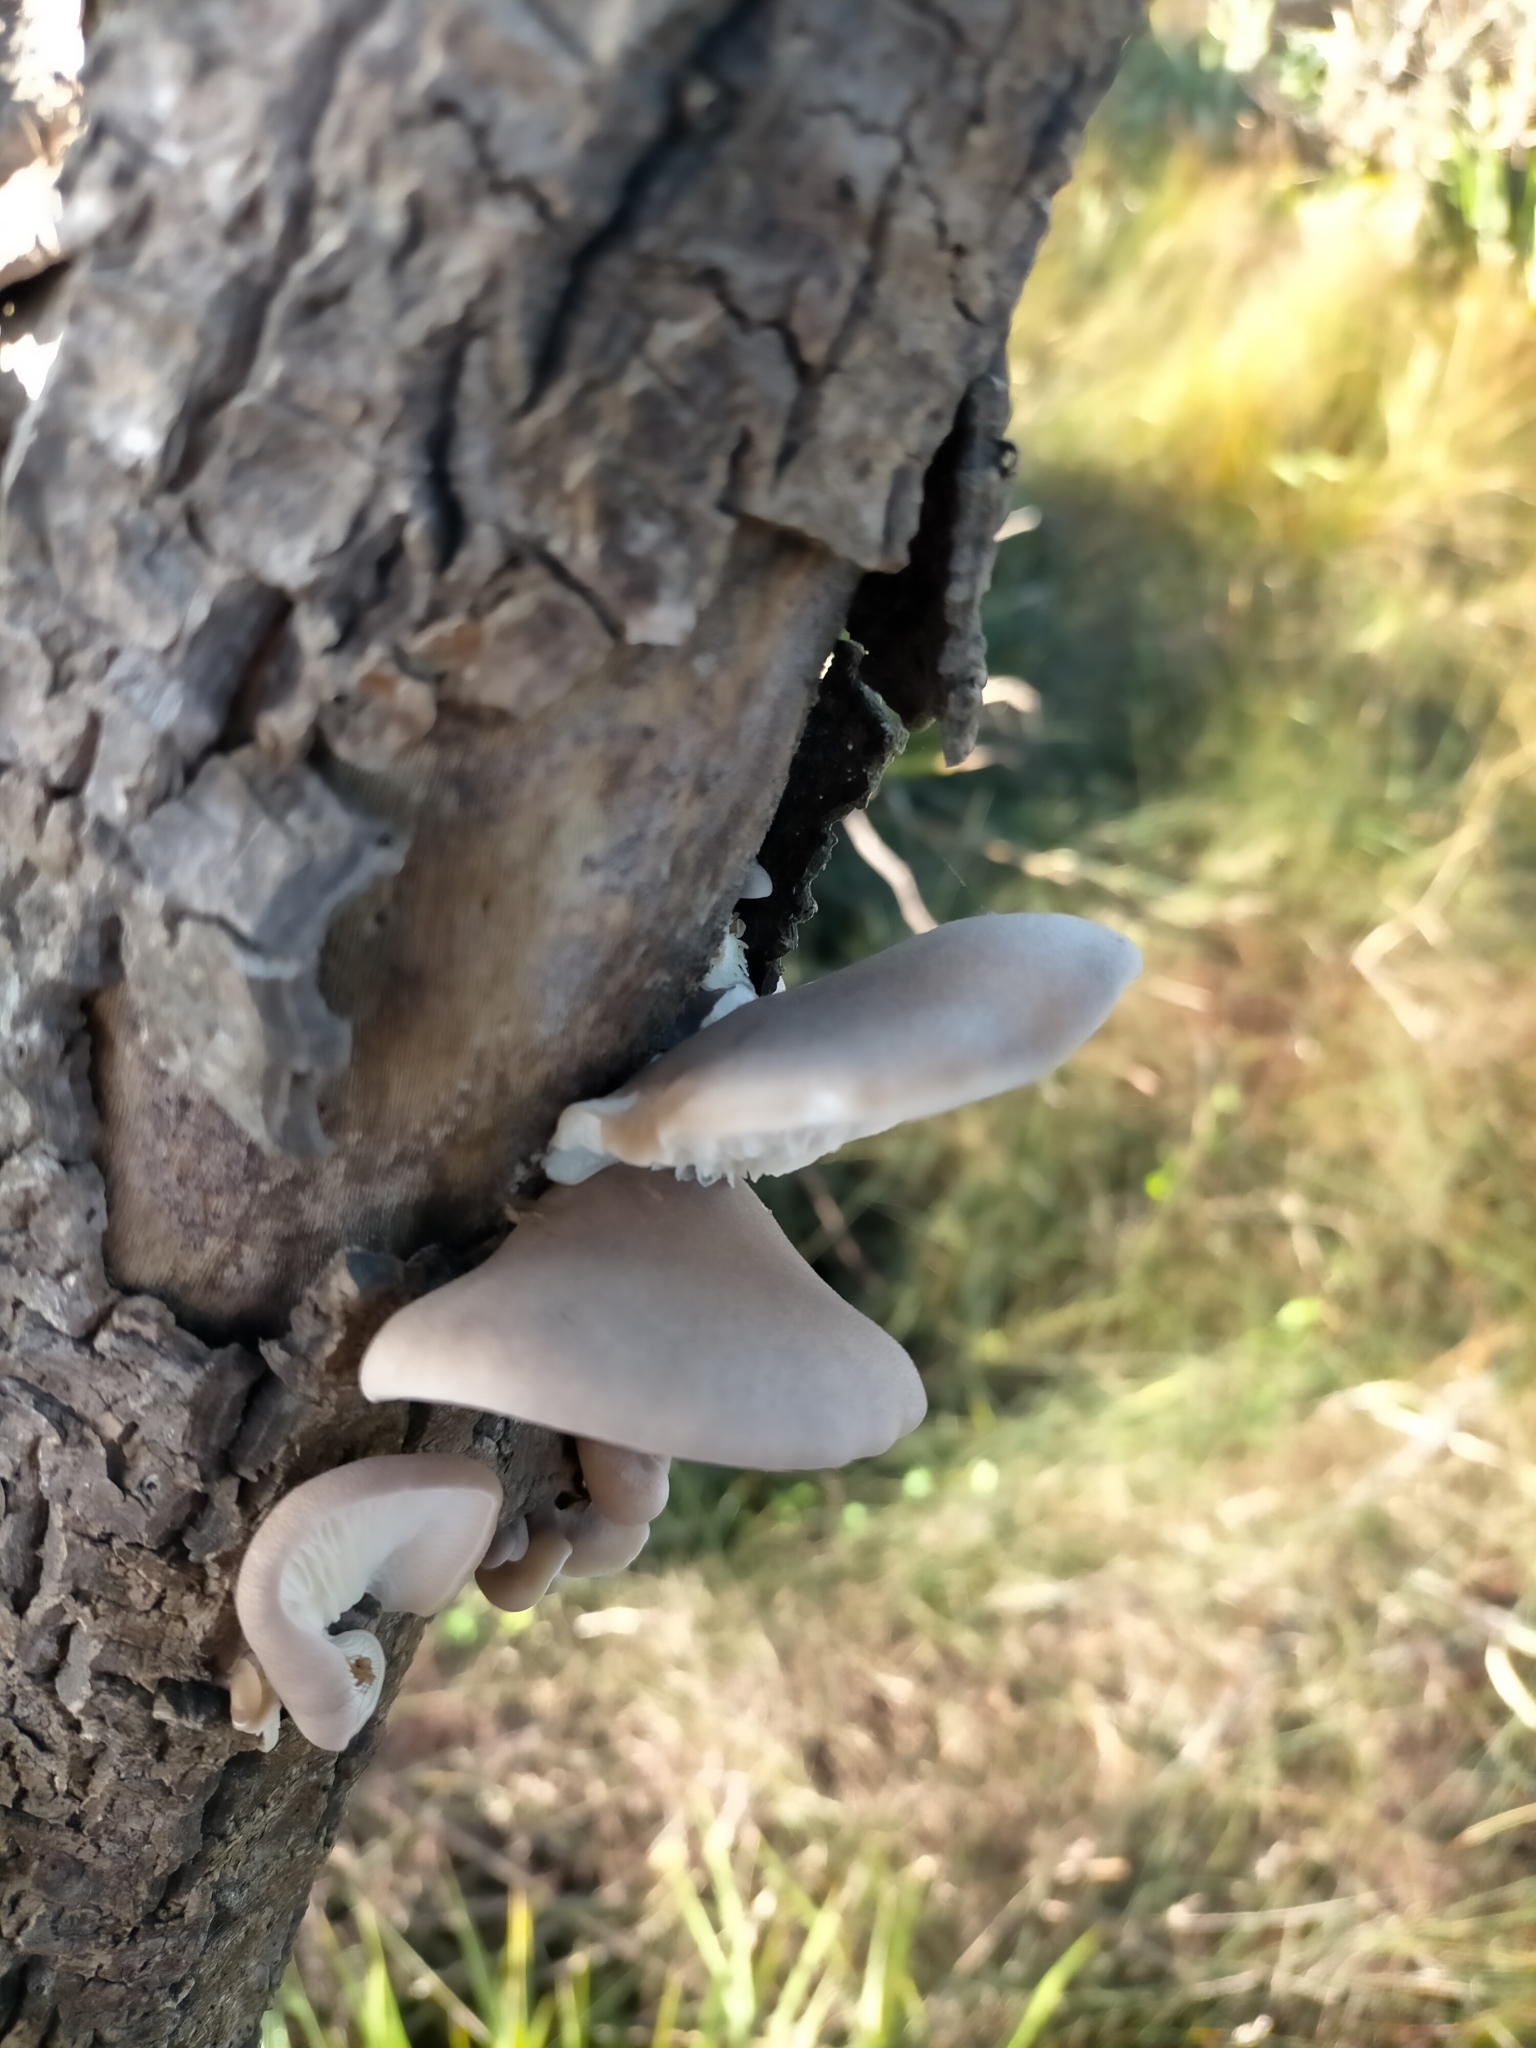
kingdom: Fungi
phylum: Basidiomycota
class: Agaricomycetes
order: Agaricales
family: Pleurotaceae
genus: Pleurotus
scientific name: Pleurotus australis
